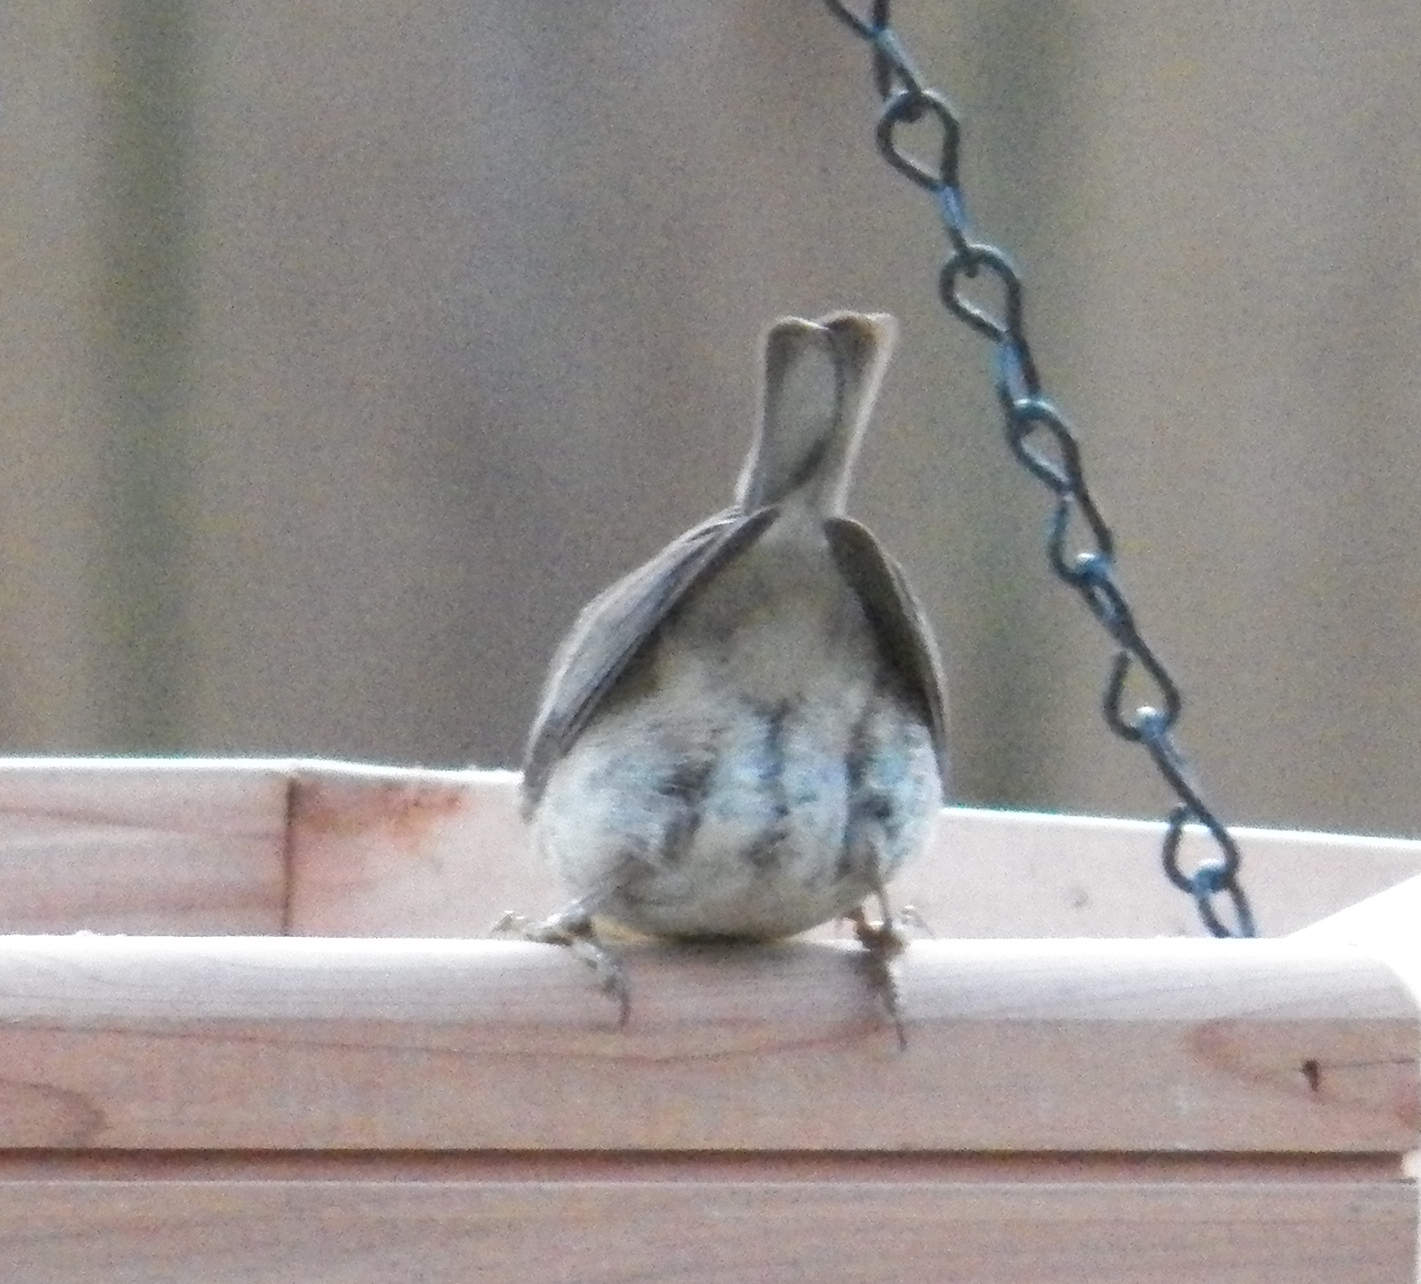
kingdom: Animalia
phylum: Chordata
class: Aves
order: Passeriformes
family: Parulidae
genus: Setophaga
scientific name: Setophaga pinus
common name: Pine warbler
